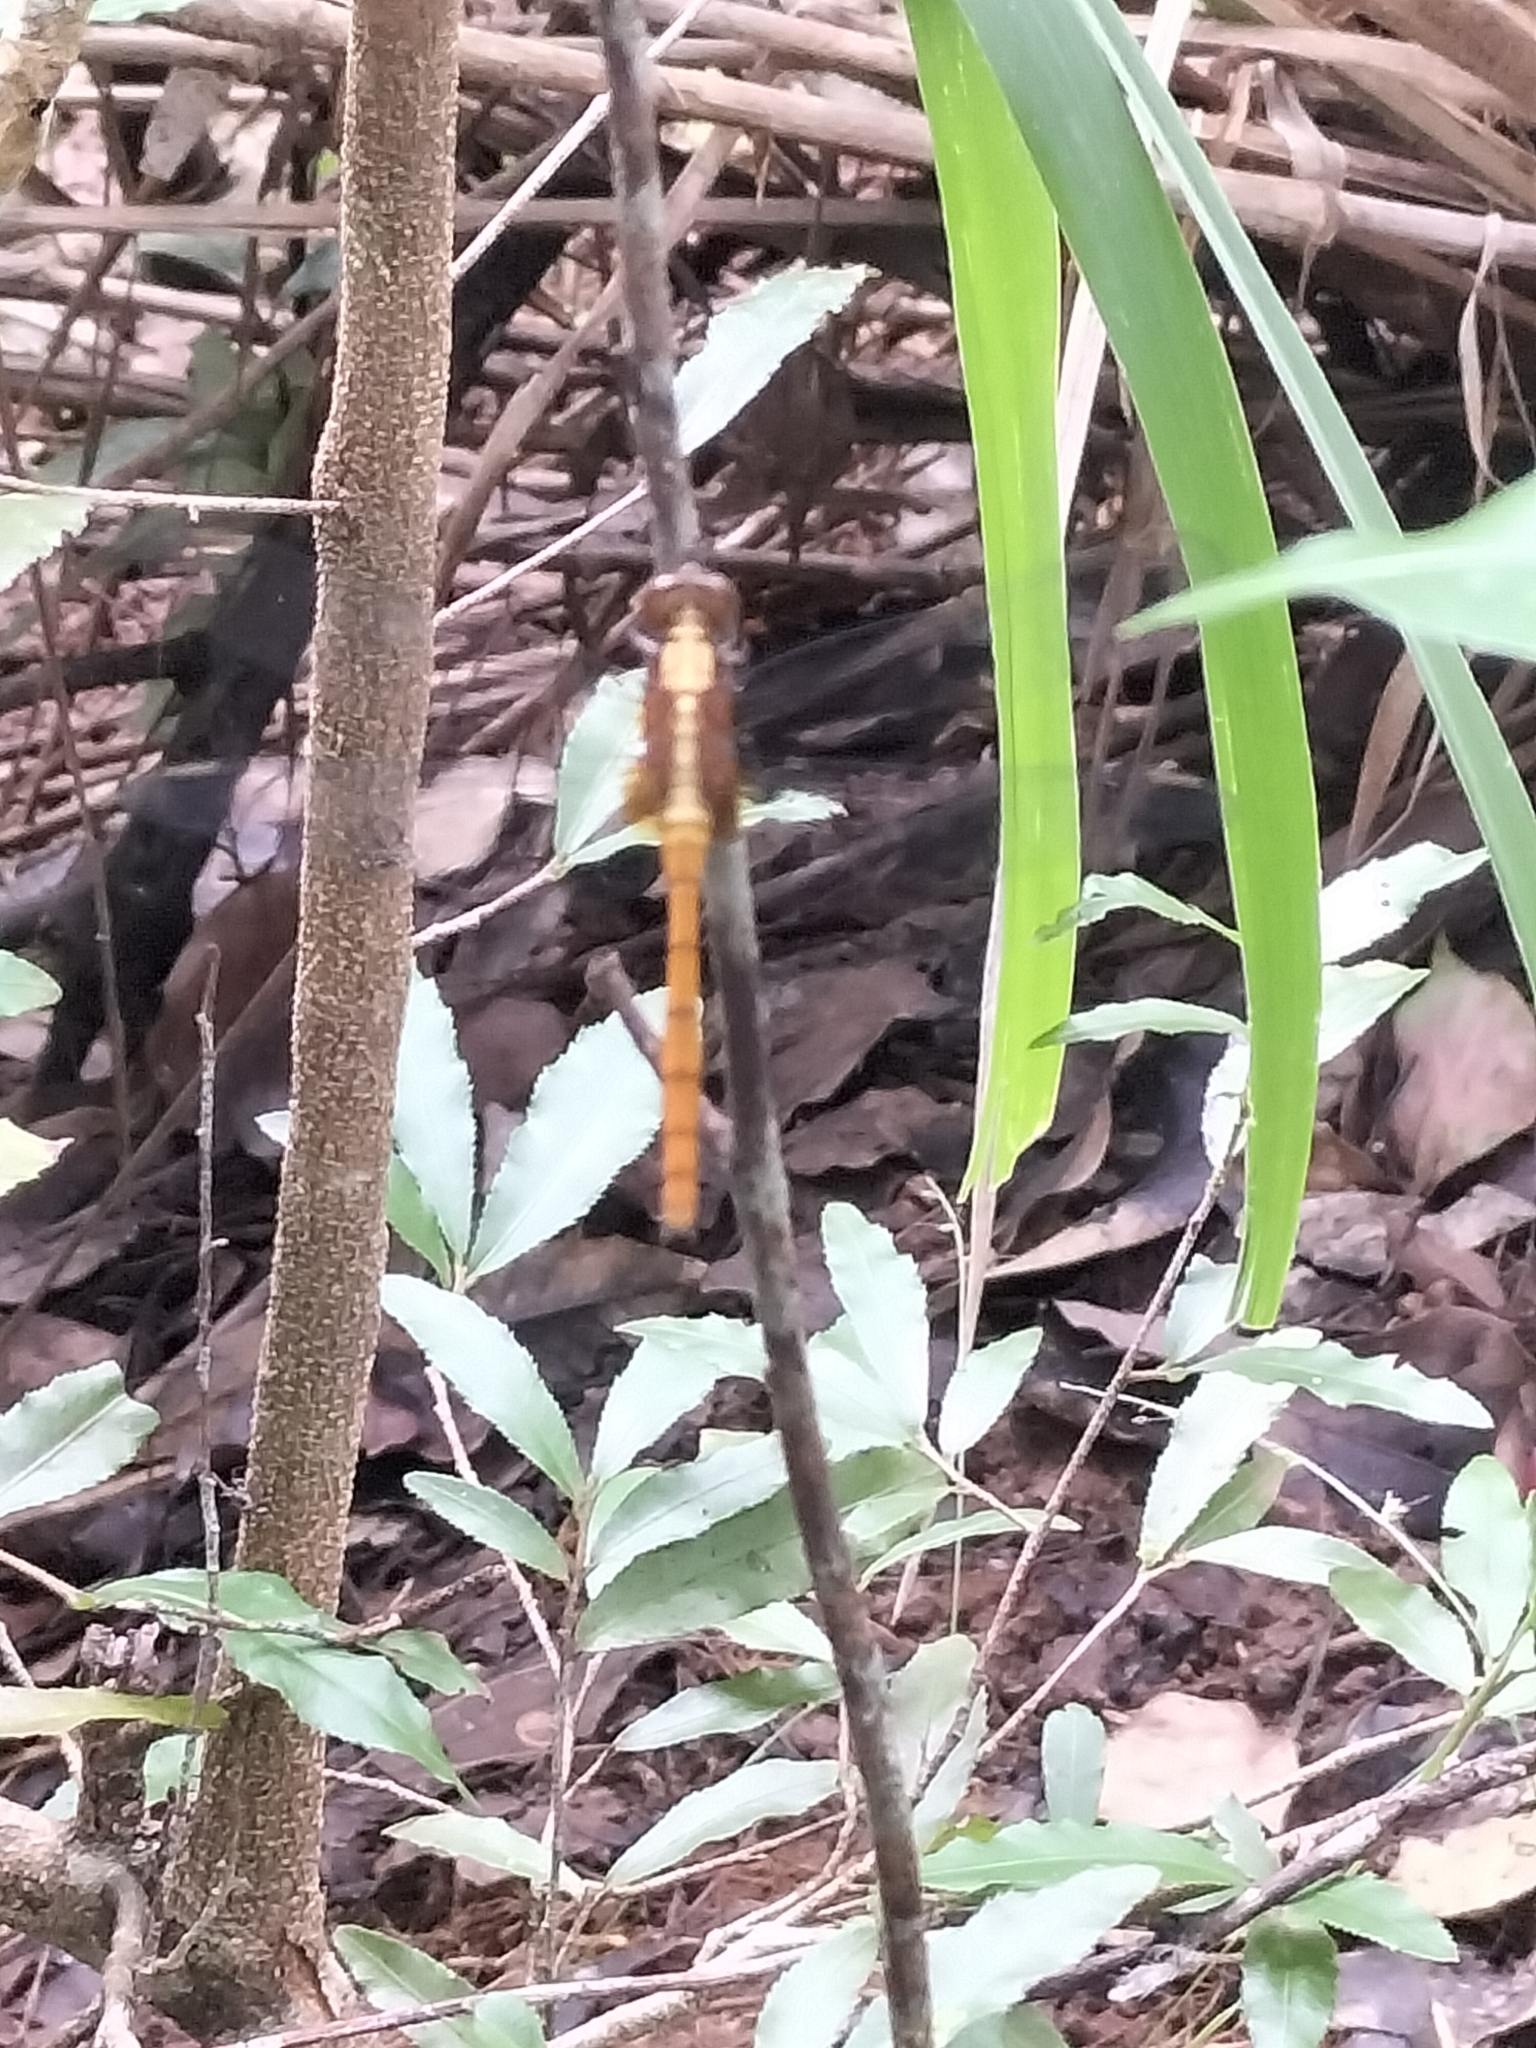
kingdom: Animalia
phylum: Arthropoda
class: Insecta
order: Odonata
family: Libellulidae
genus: Orthetrum
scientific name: Orthetrum villosovittatum
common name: Firery skimmer
